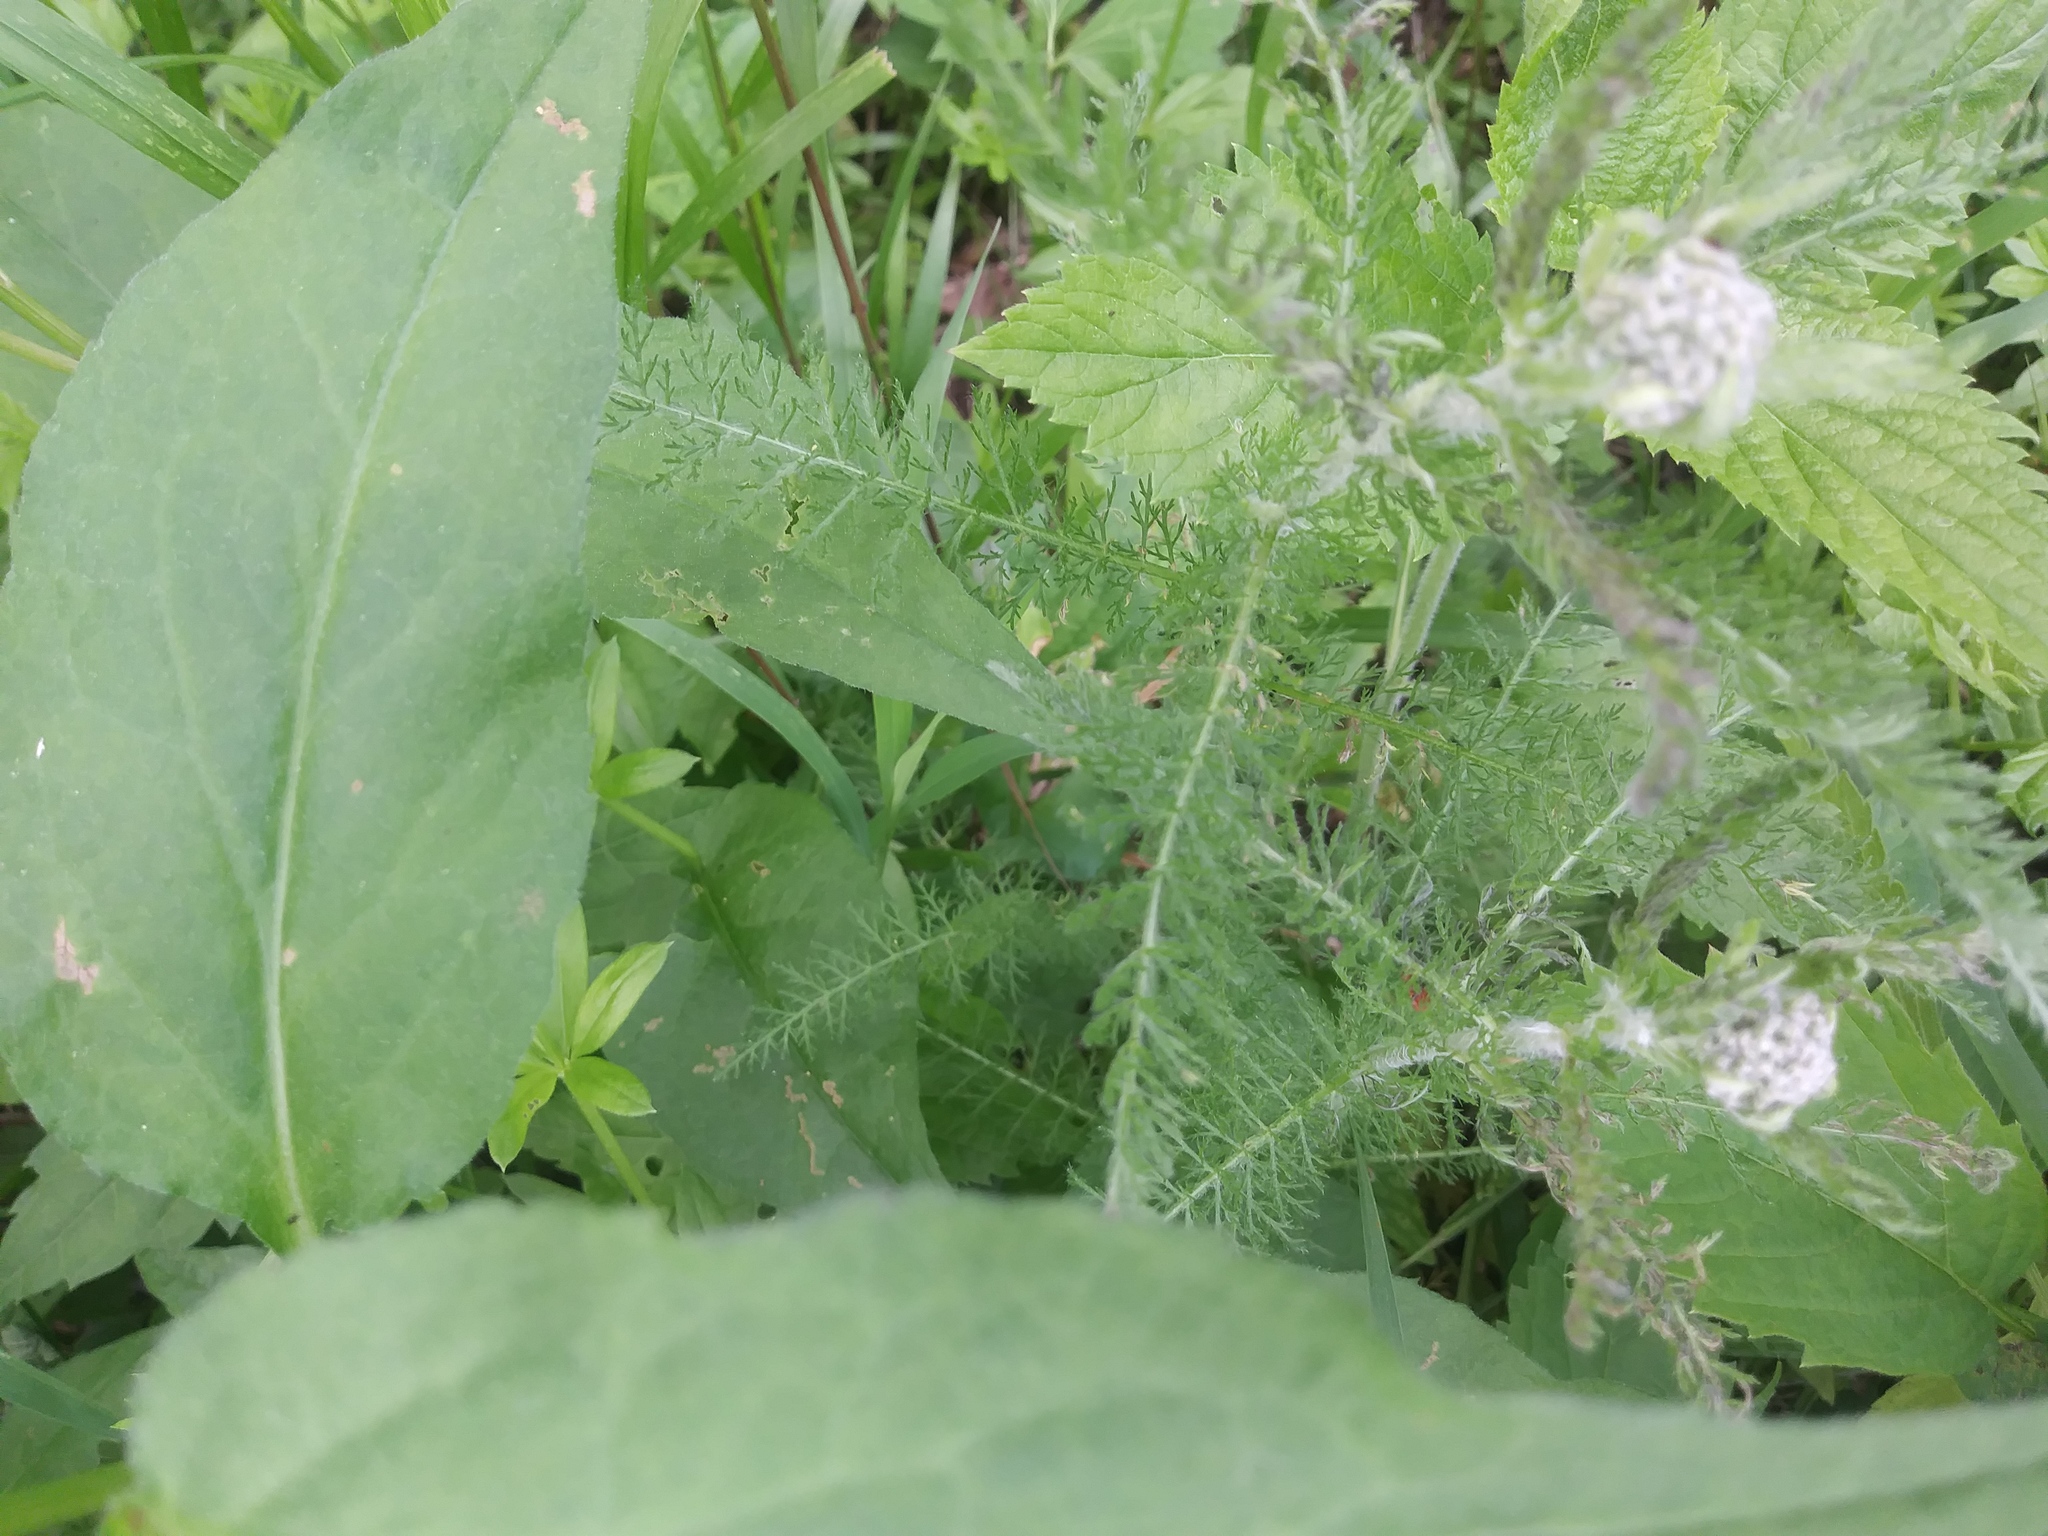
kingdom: Plantae
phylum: Tracheophyta
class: Magnoliopsida
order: Asterales
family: Asteraceae
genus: Achillea
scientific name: Achillea millefolium
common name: Yarrow
